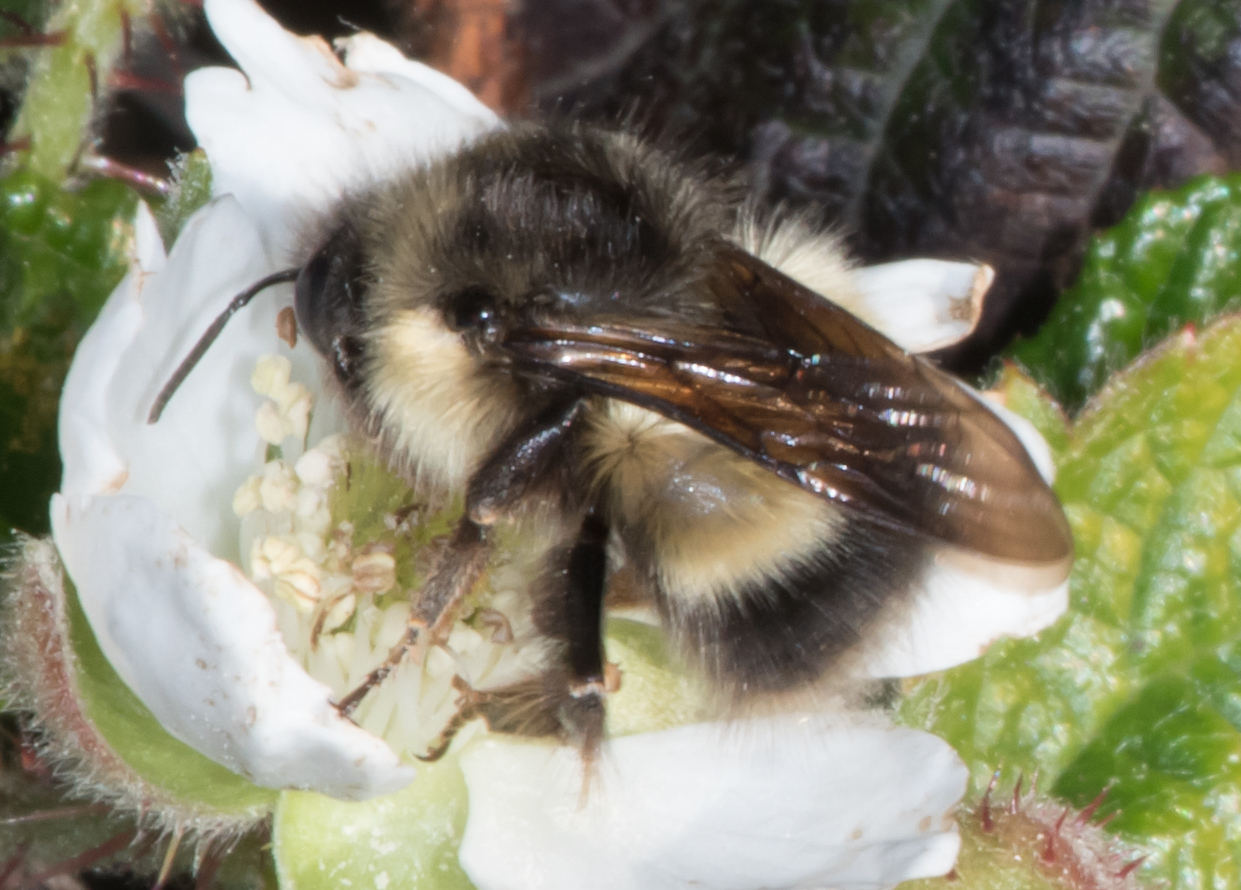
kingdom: Animalia
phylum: Arthropoda
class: Insecta
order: Hymenoptera
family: Apidae
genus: Bombus
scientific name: Bombus sitkensis
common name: Sitka bumble bee
